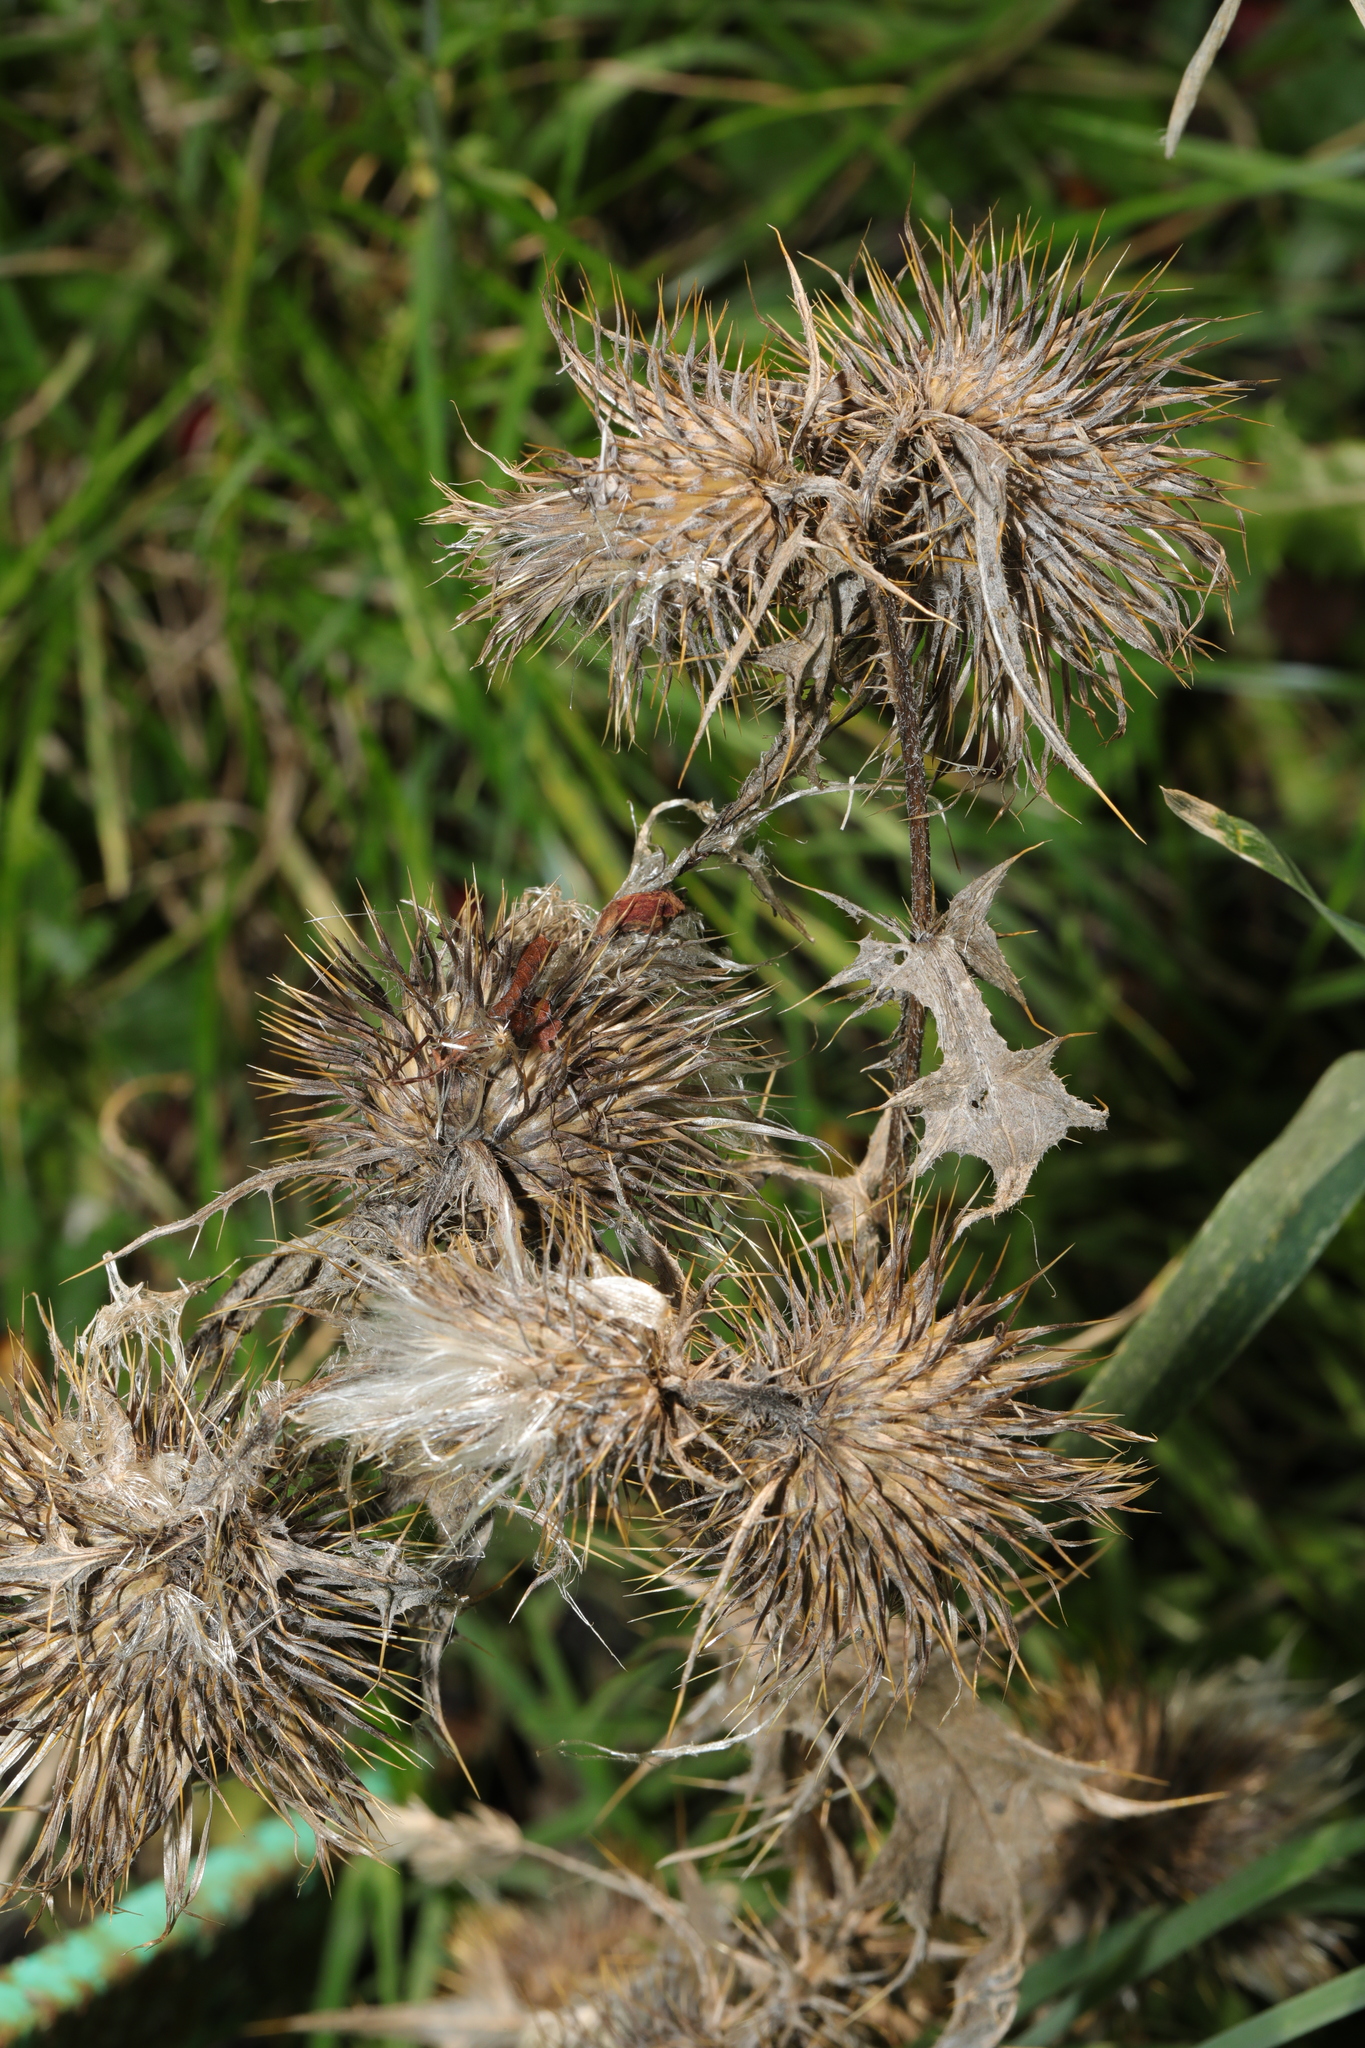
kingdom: Plantae
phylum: Tracheophyta
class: Magnoliopsida
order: Asterales
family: Asteraceae
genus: Cirsium
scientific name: Cirsium vulgare
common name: Bull thistle
